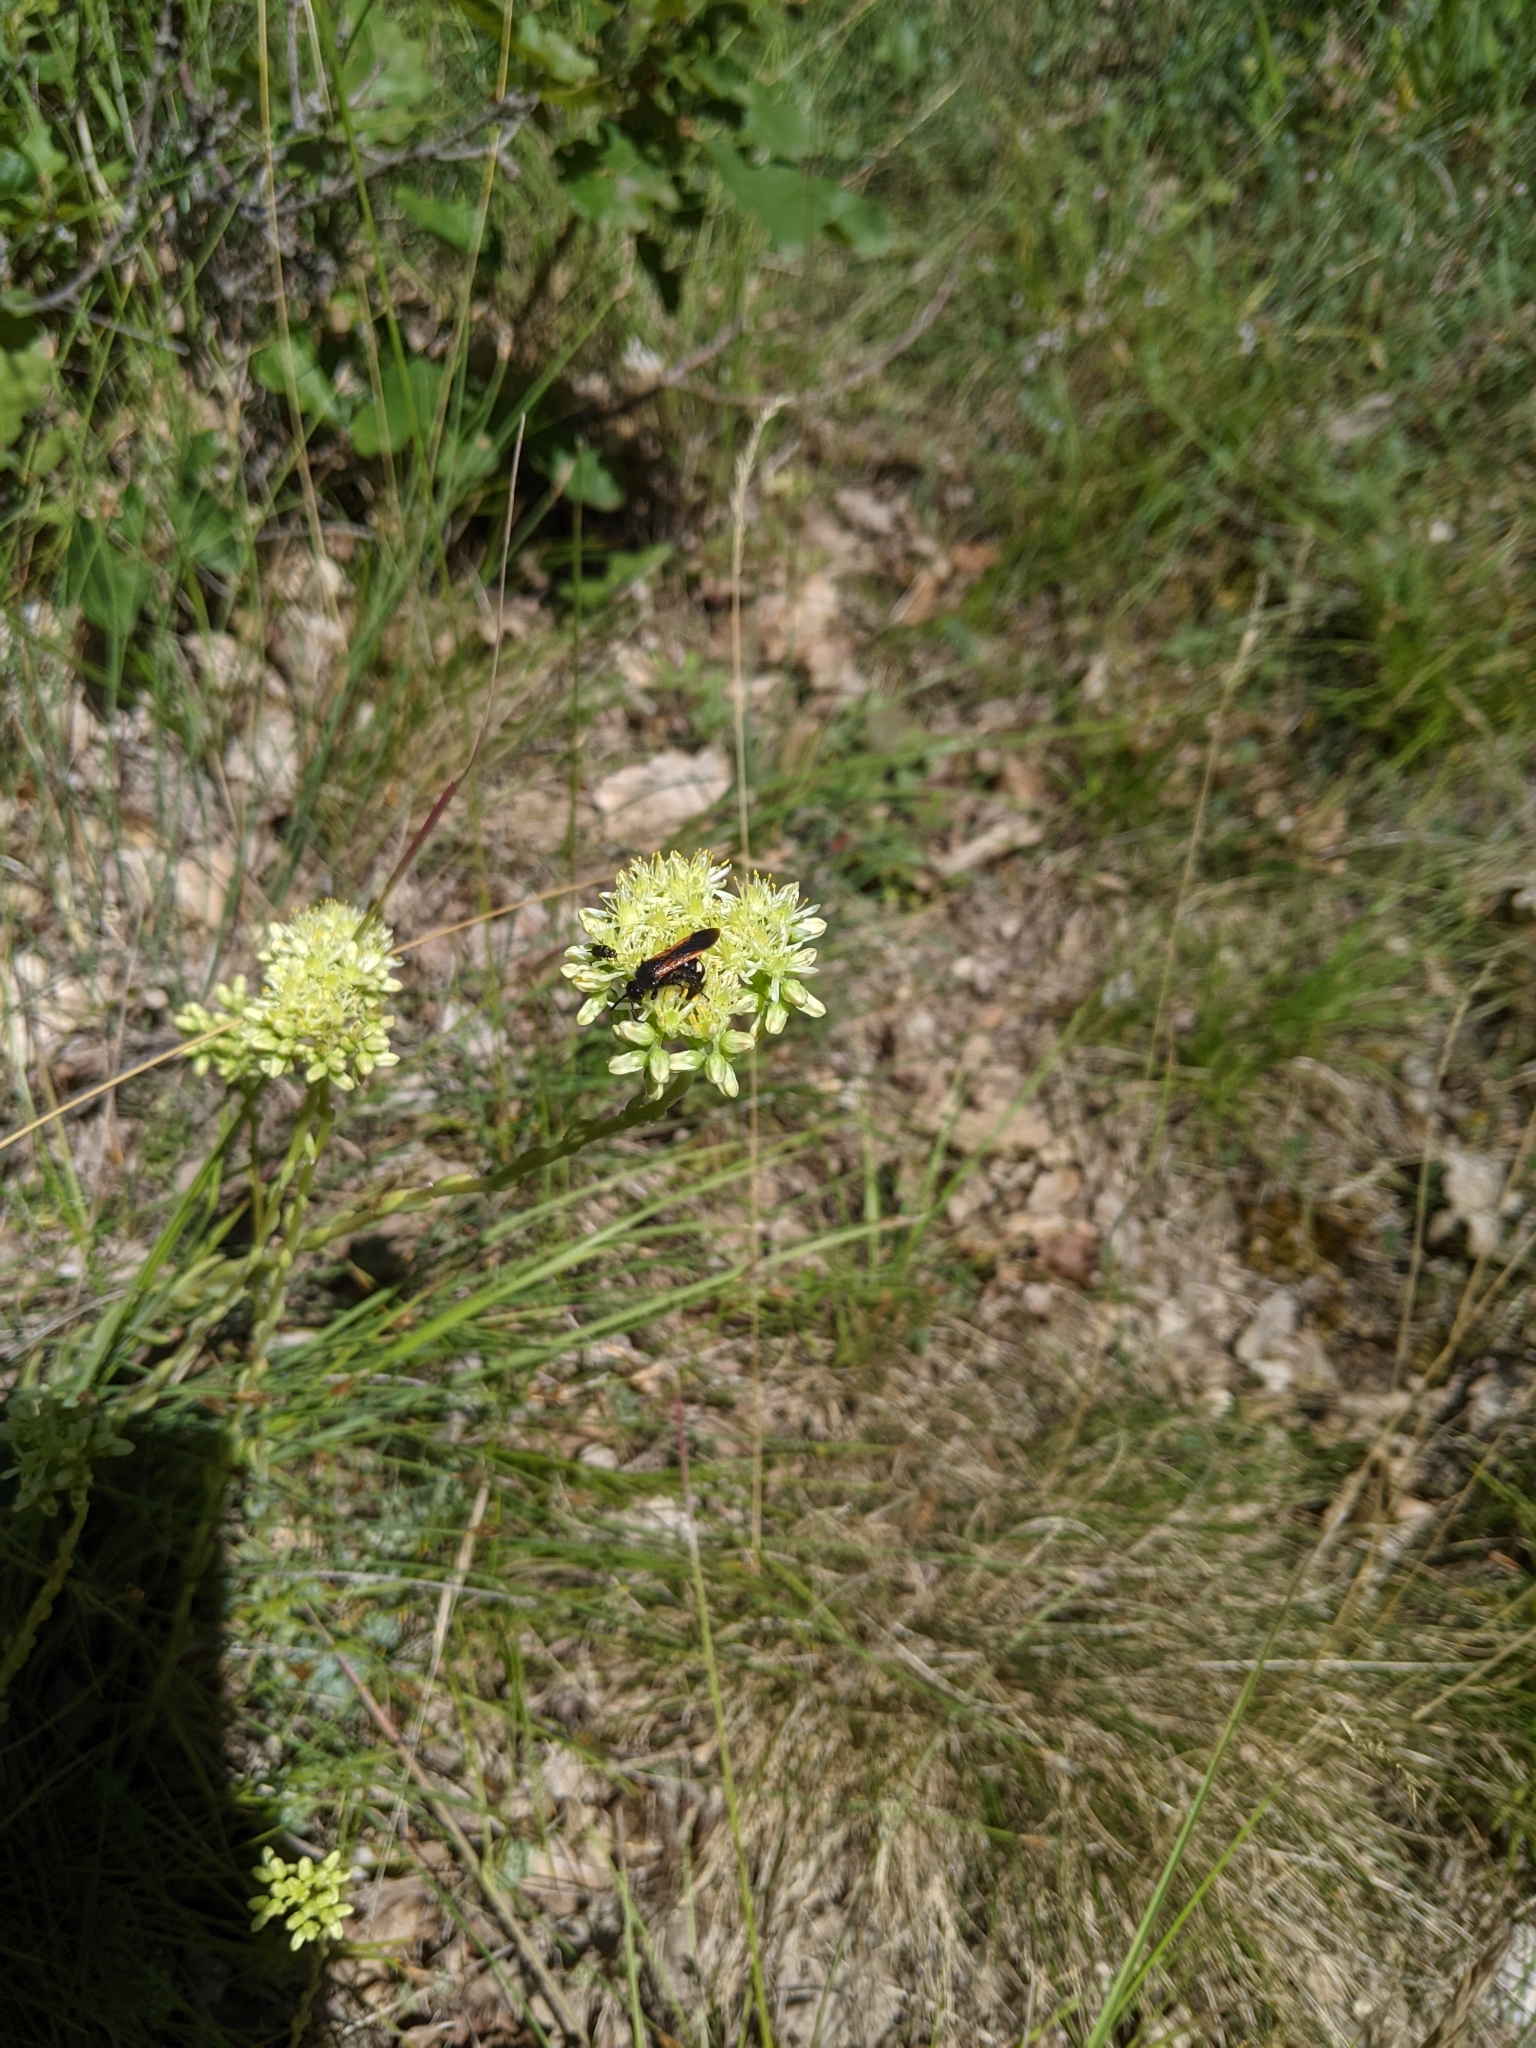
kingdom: Animalia
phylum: Arthropoda
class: Insecta
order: Hymenoptera
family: Vespidae
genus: Vespa
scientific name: Vespa sexmaculata
